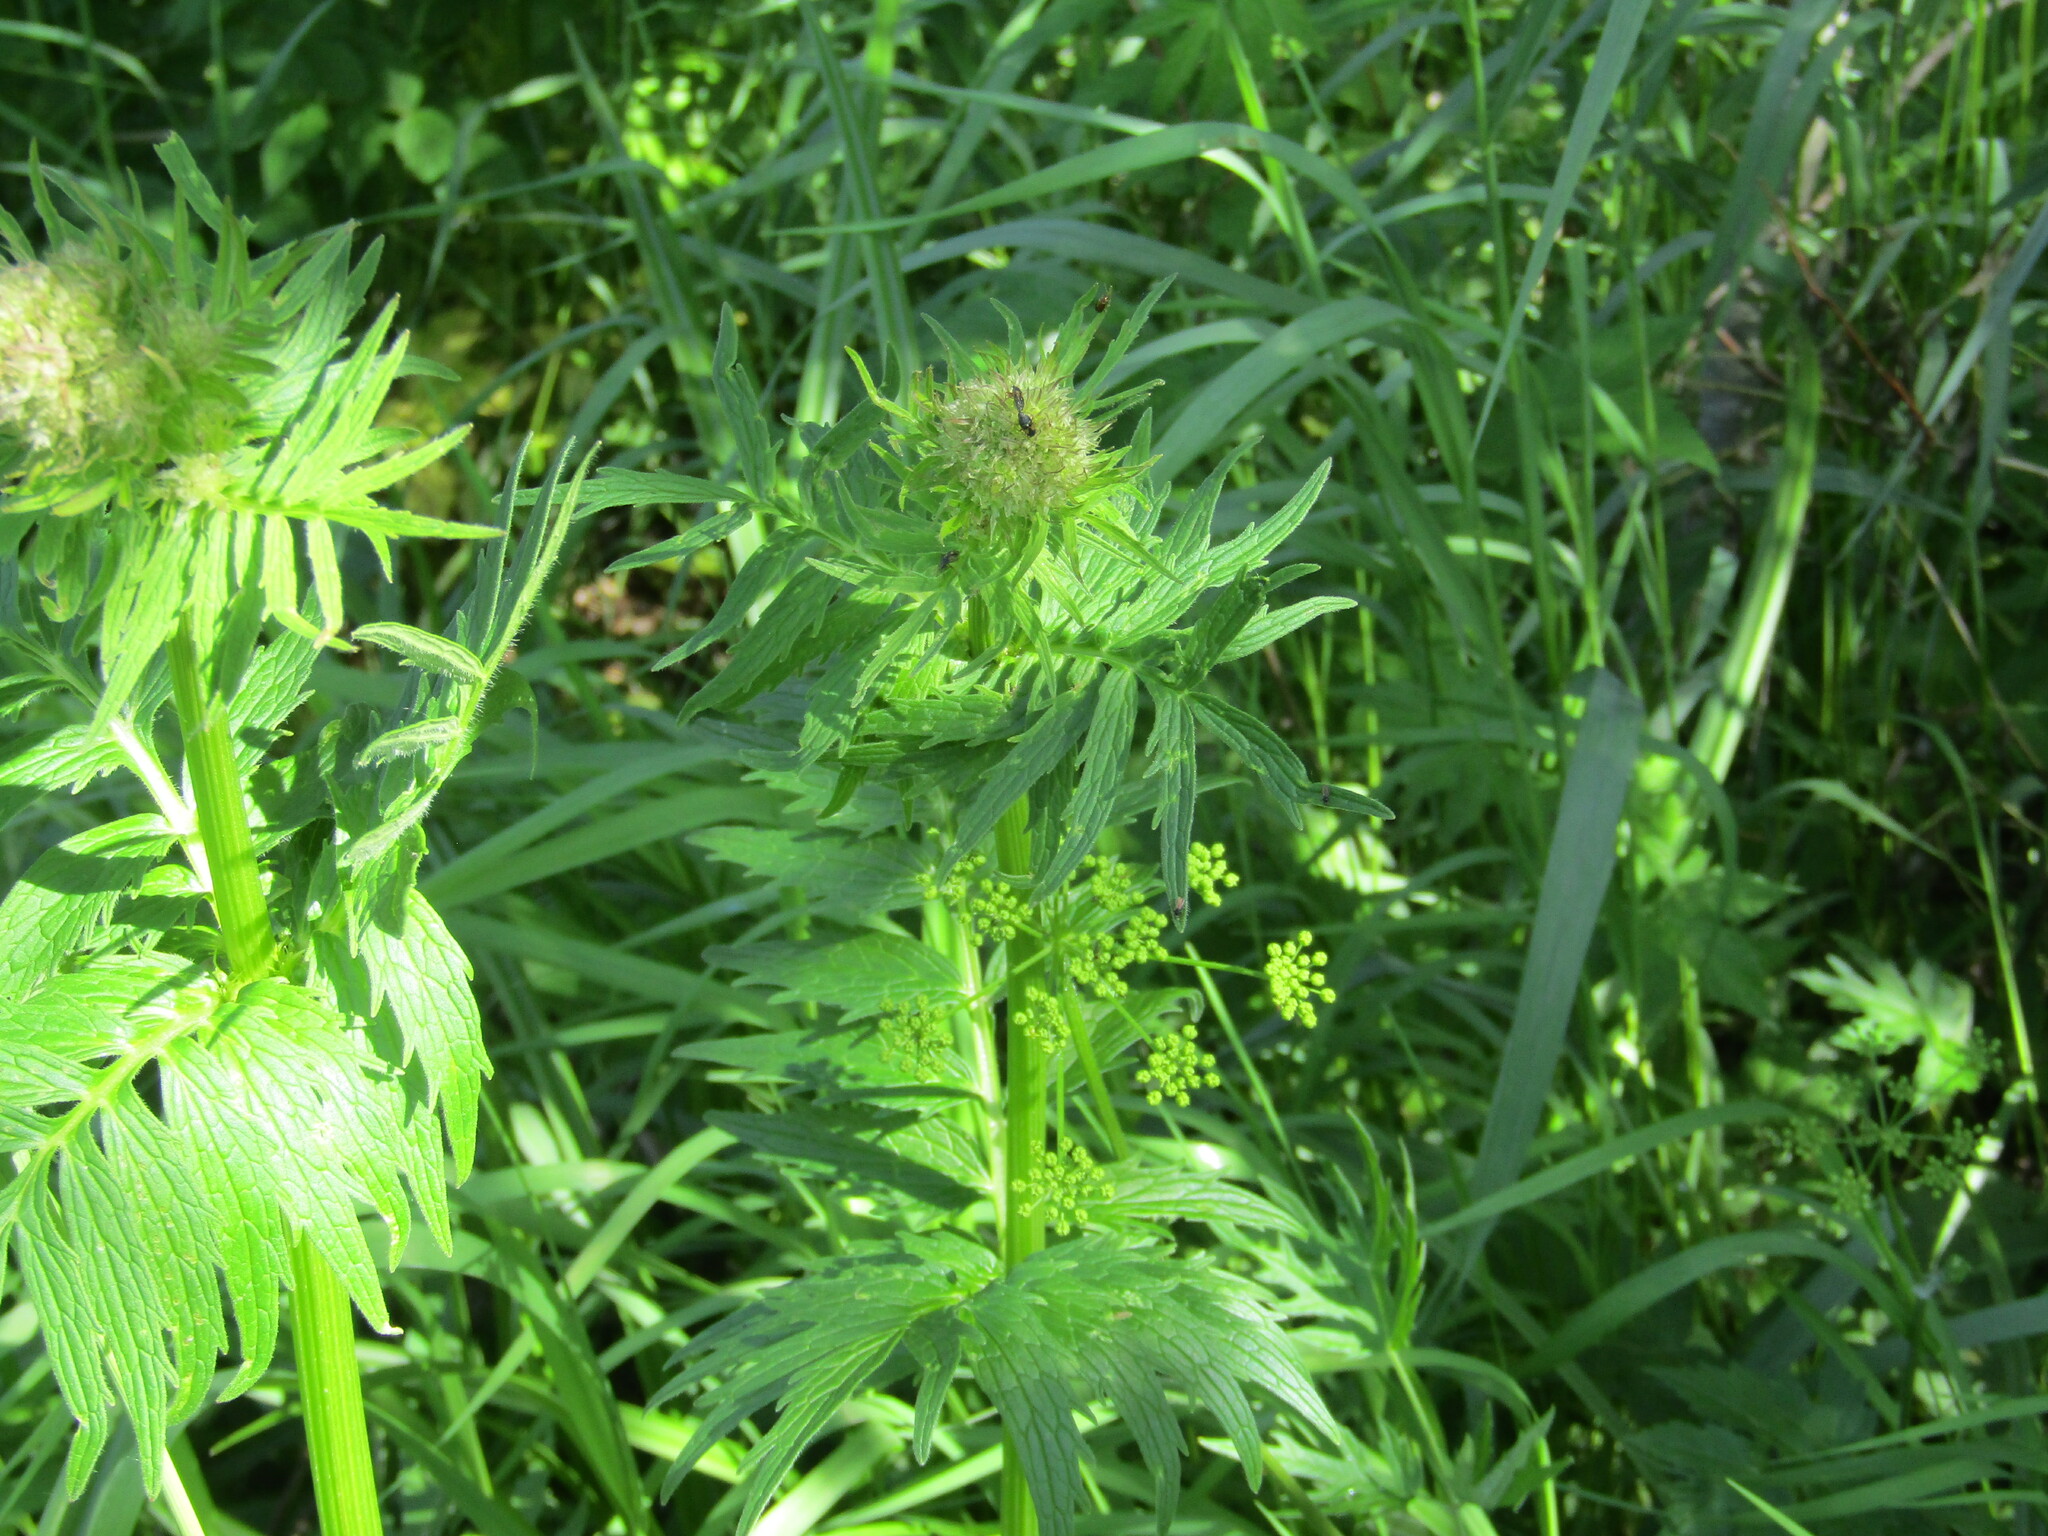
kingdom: Plantae
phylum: Tracheophyta
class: Magnoliopsida
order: Dipsacales
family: Caprifoliaceae
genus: Valeriana
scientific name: Valeriana officinalis
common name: Common valerian
